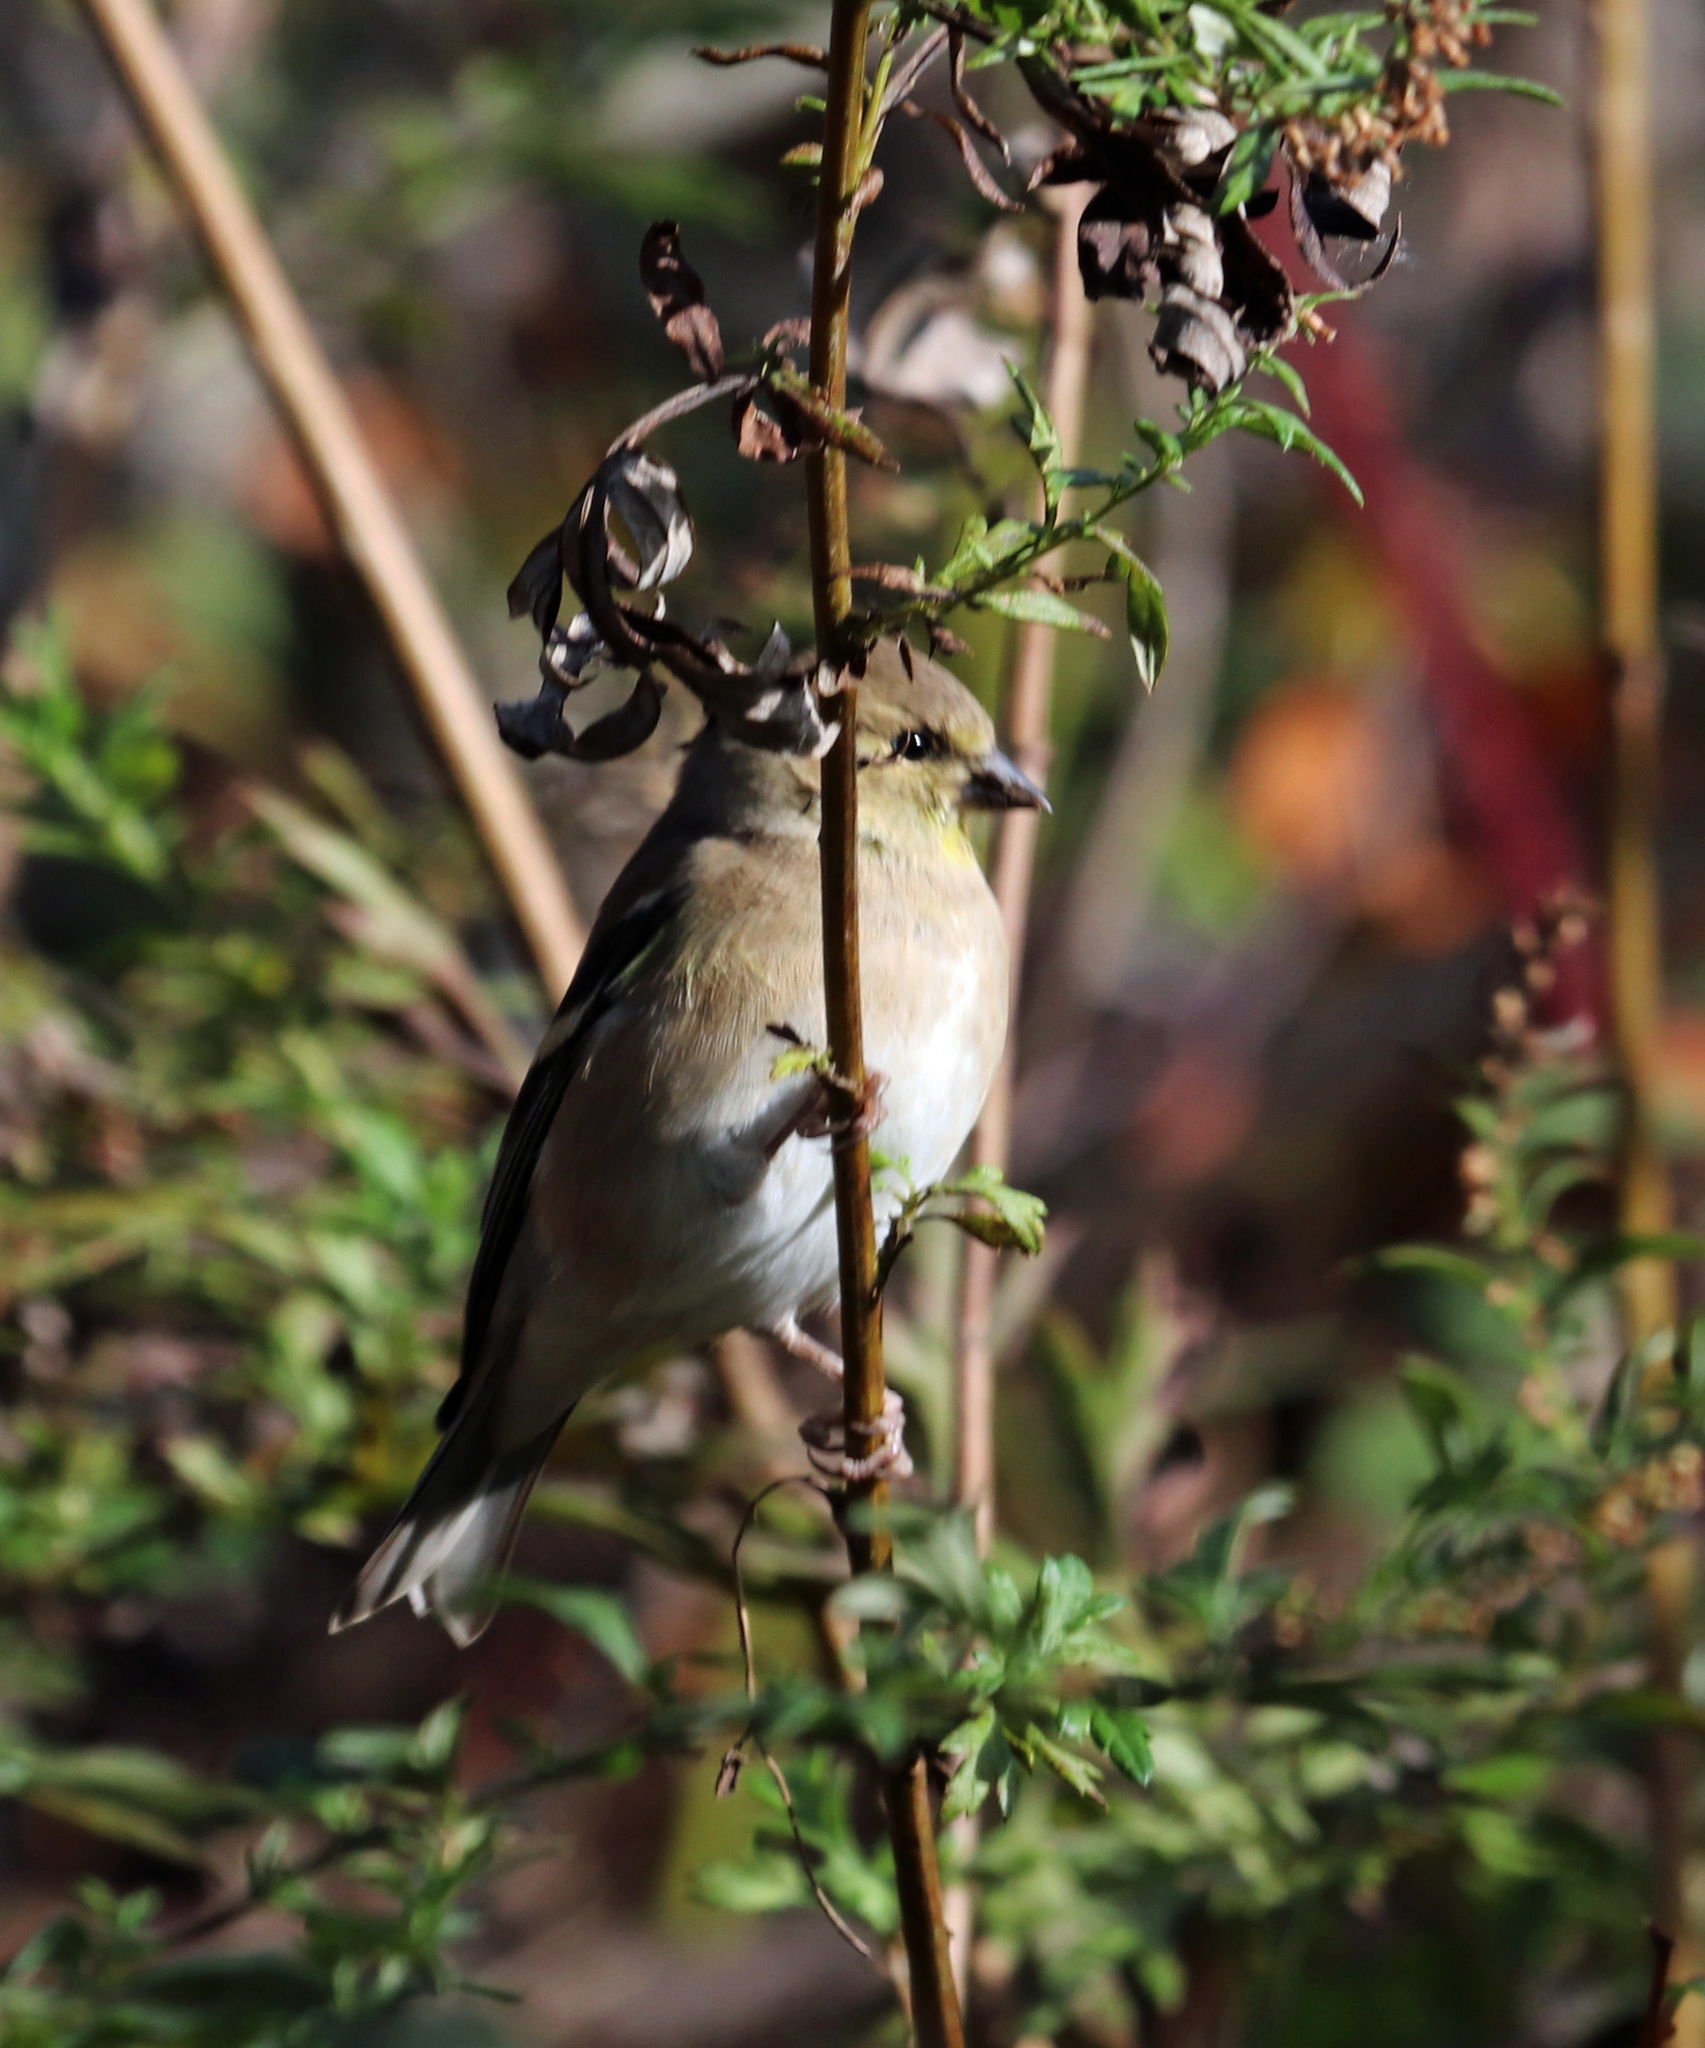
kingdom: Animalia
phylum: Chordata
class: Aves
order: Passeriformes
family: Fringillidae
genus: Spinus
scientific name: Spinus tristis
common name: American goldfinch
